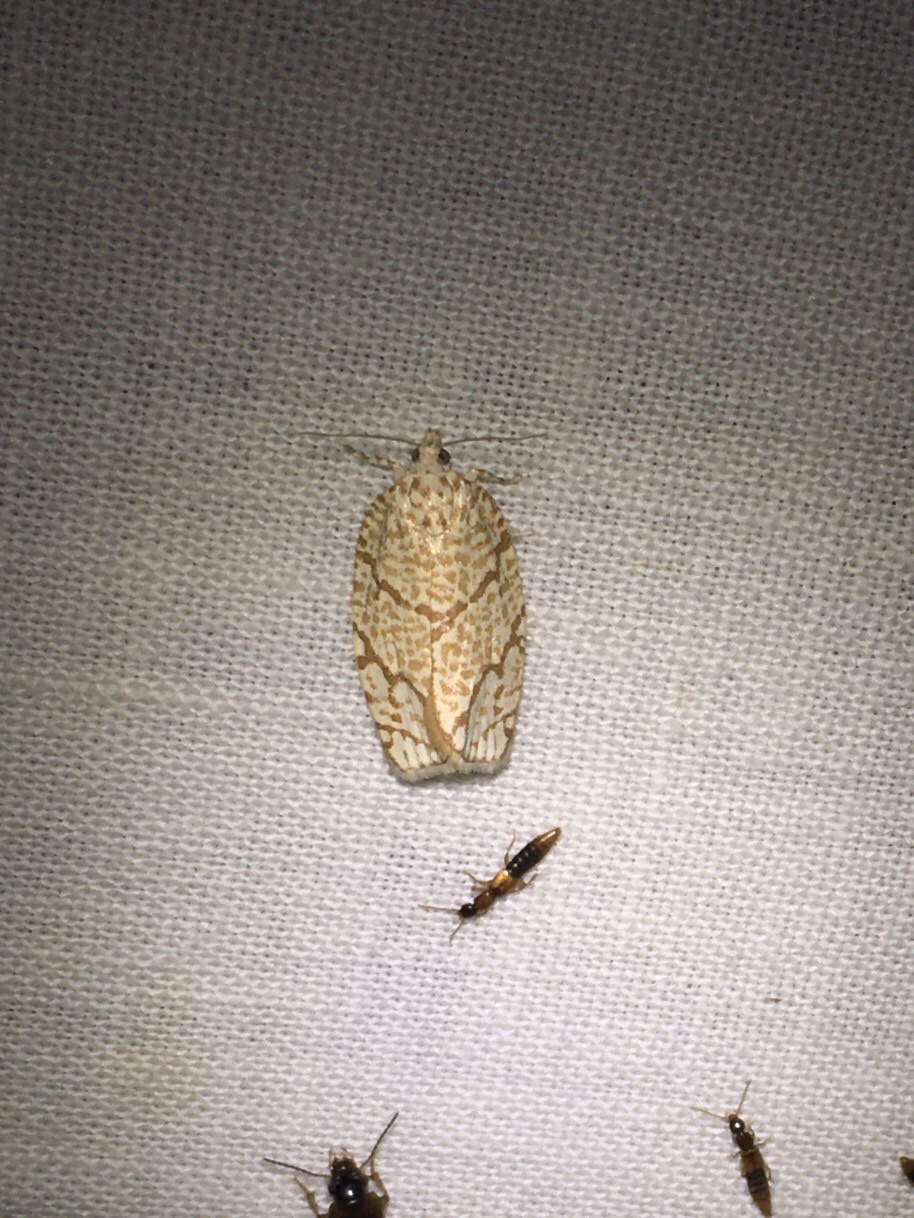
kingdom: Animalia
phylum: Arthropoda
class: Insecta
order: Lepidoptera
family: Tortricidae
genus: Argyrotaenia
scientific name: Argyrotaenia quercifoliana
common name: Yellow-winged oak leafroller moth
